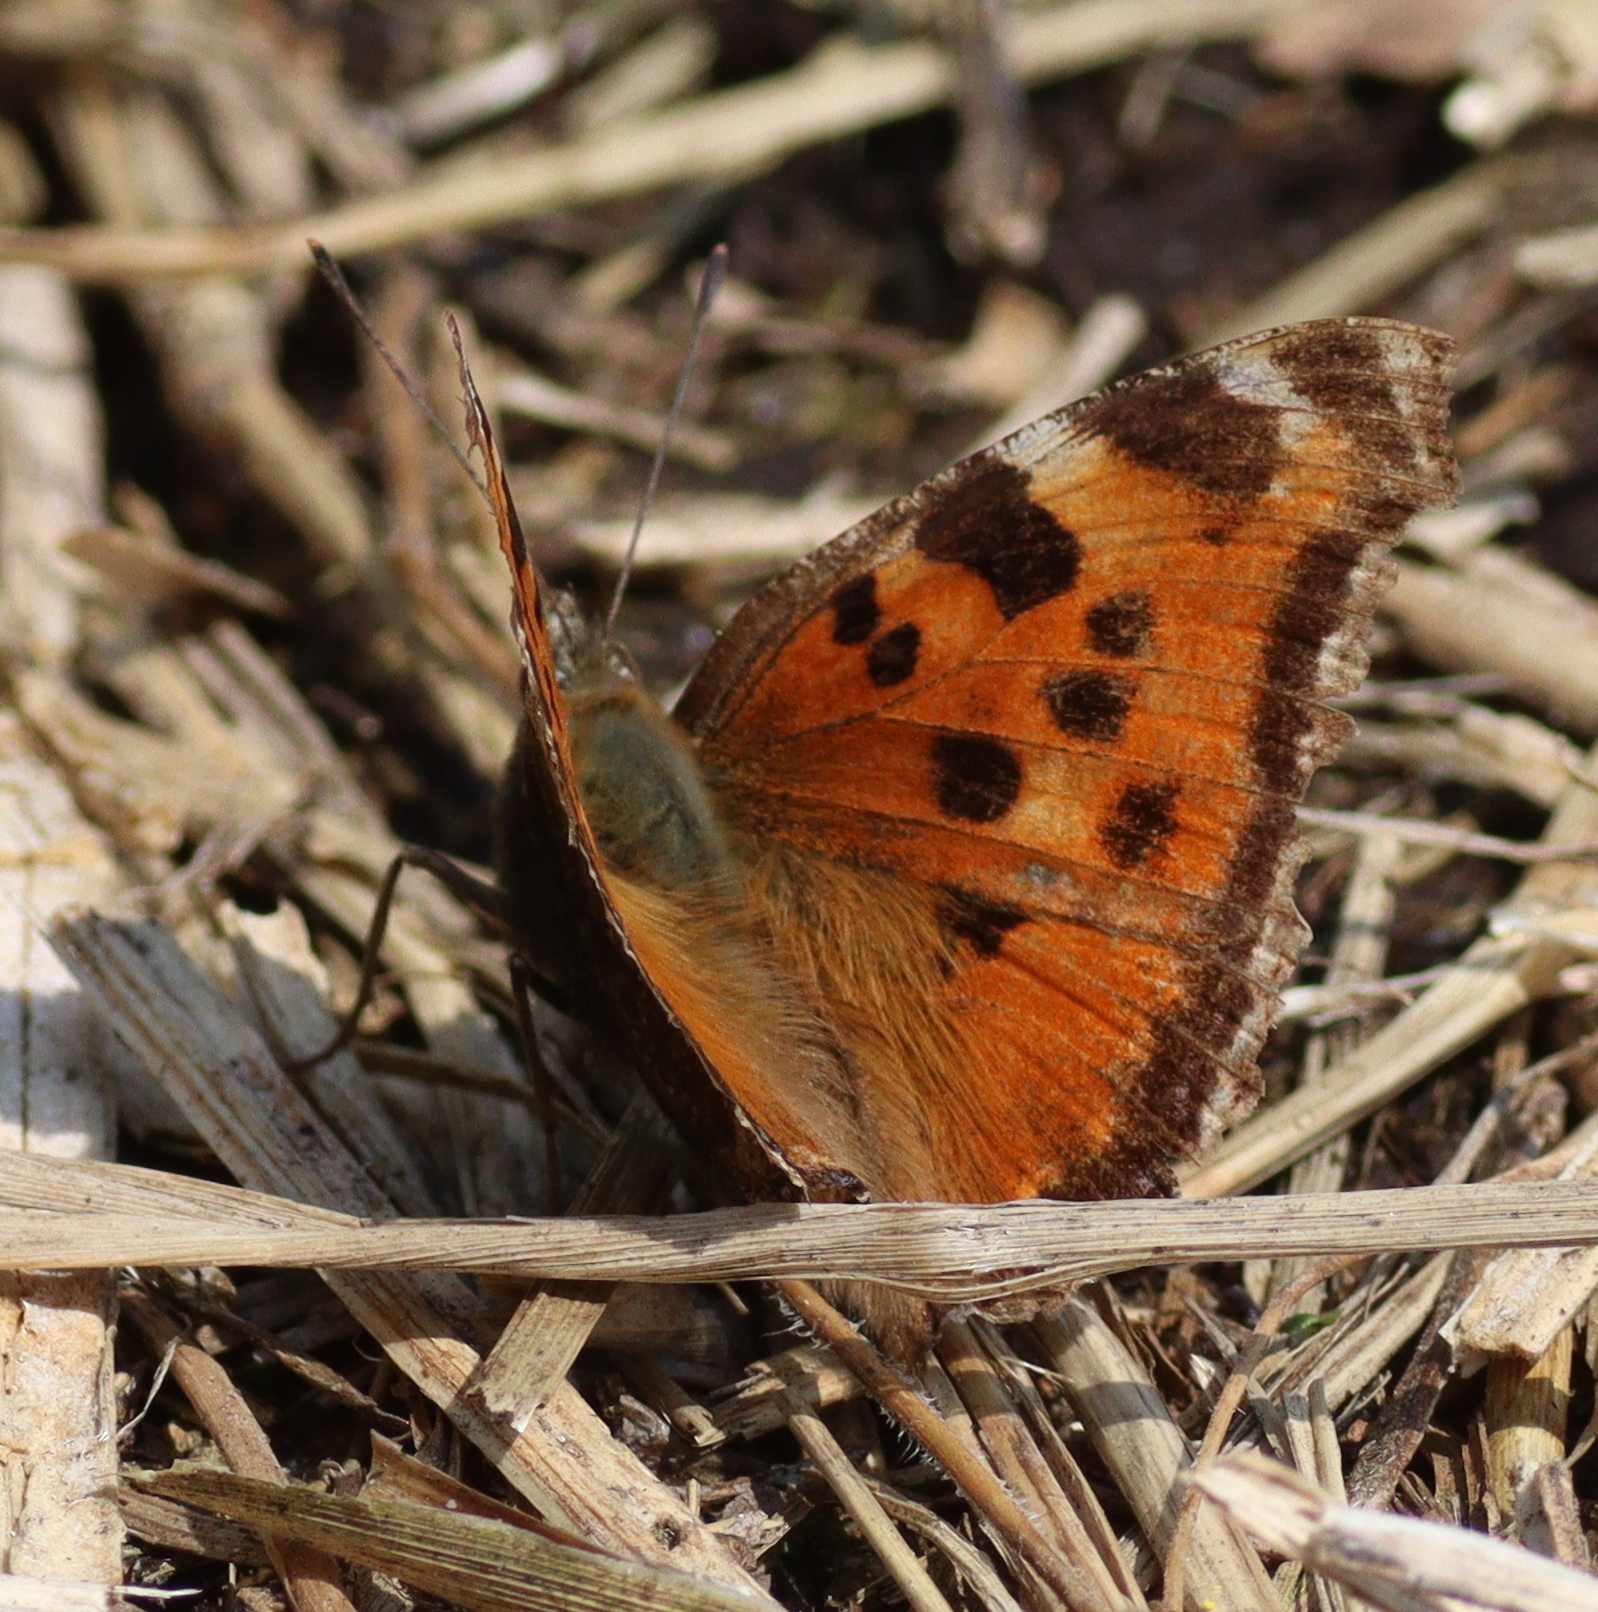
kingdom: Animalia
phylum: Arthropoda
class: Insecta
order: Lepidoptera
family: Nymphalidae
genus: Nymphalis
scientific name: Nymphalis xanthomelas
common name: Scarce tortoiseshell
